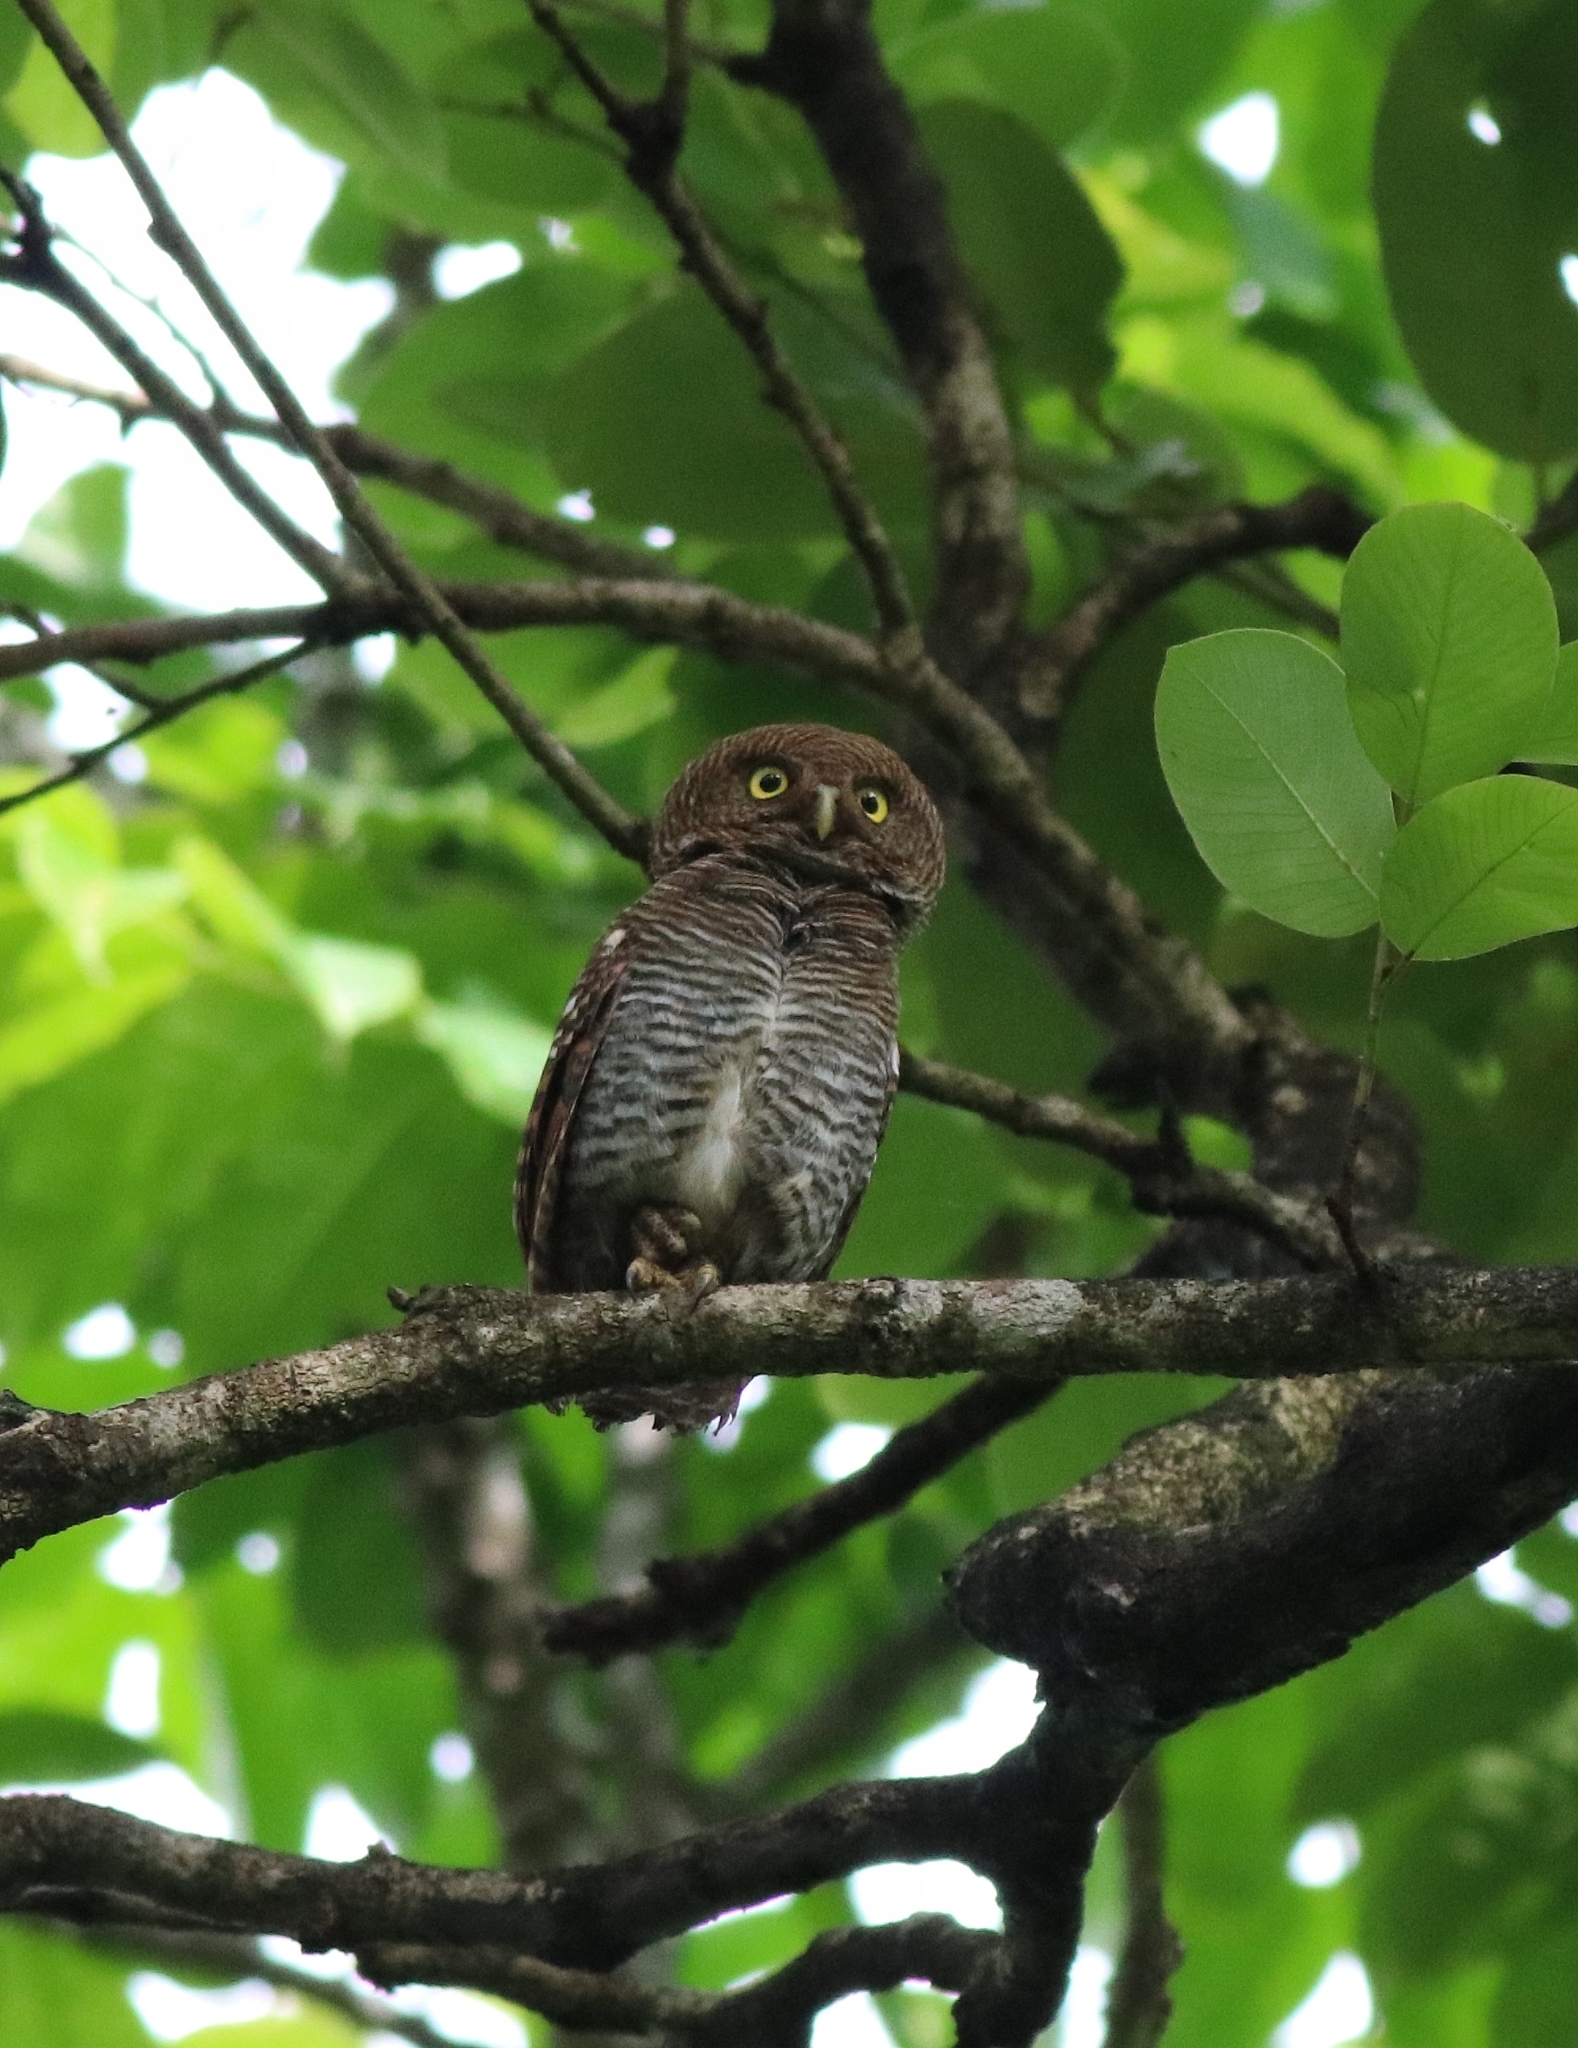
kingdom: Animalia
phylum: Chordata
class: Aves
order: Strigiformes
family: Strigidae
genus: Glaucidium
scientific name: Glaucidium radiatum
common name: Jungle owlet
